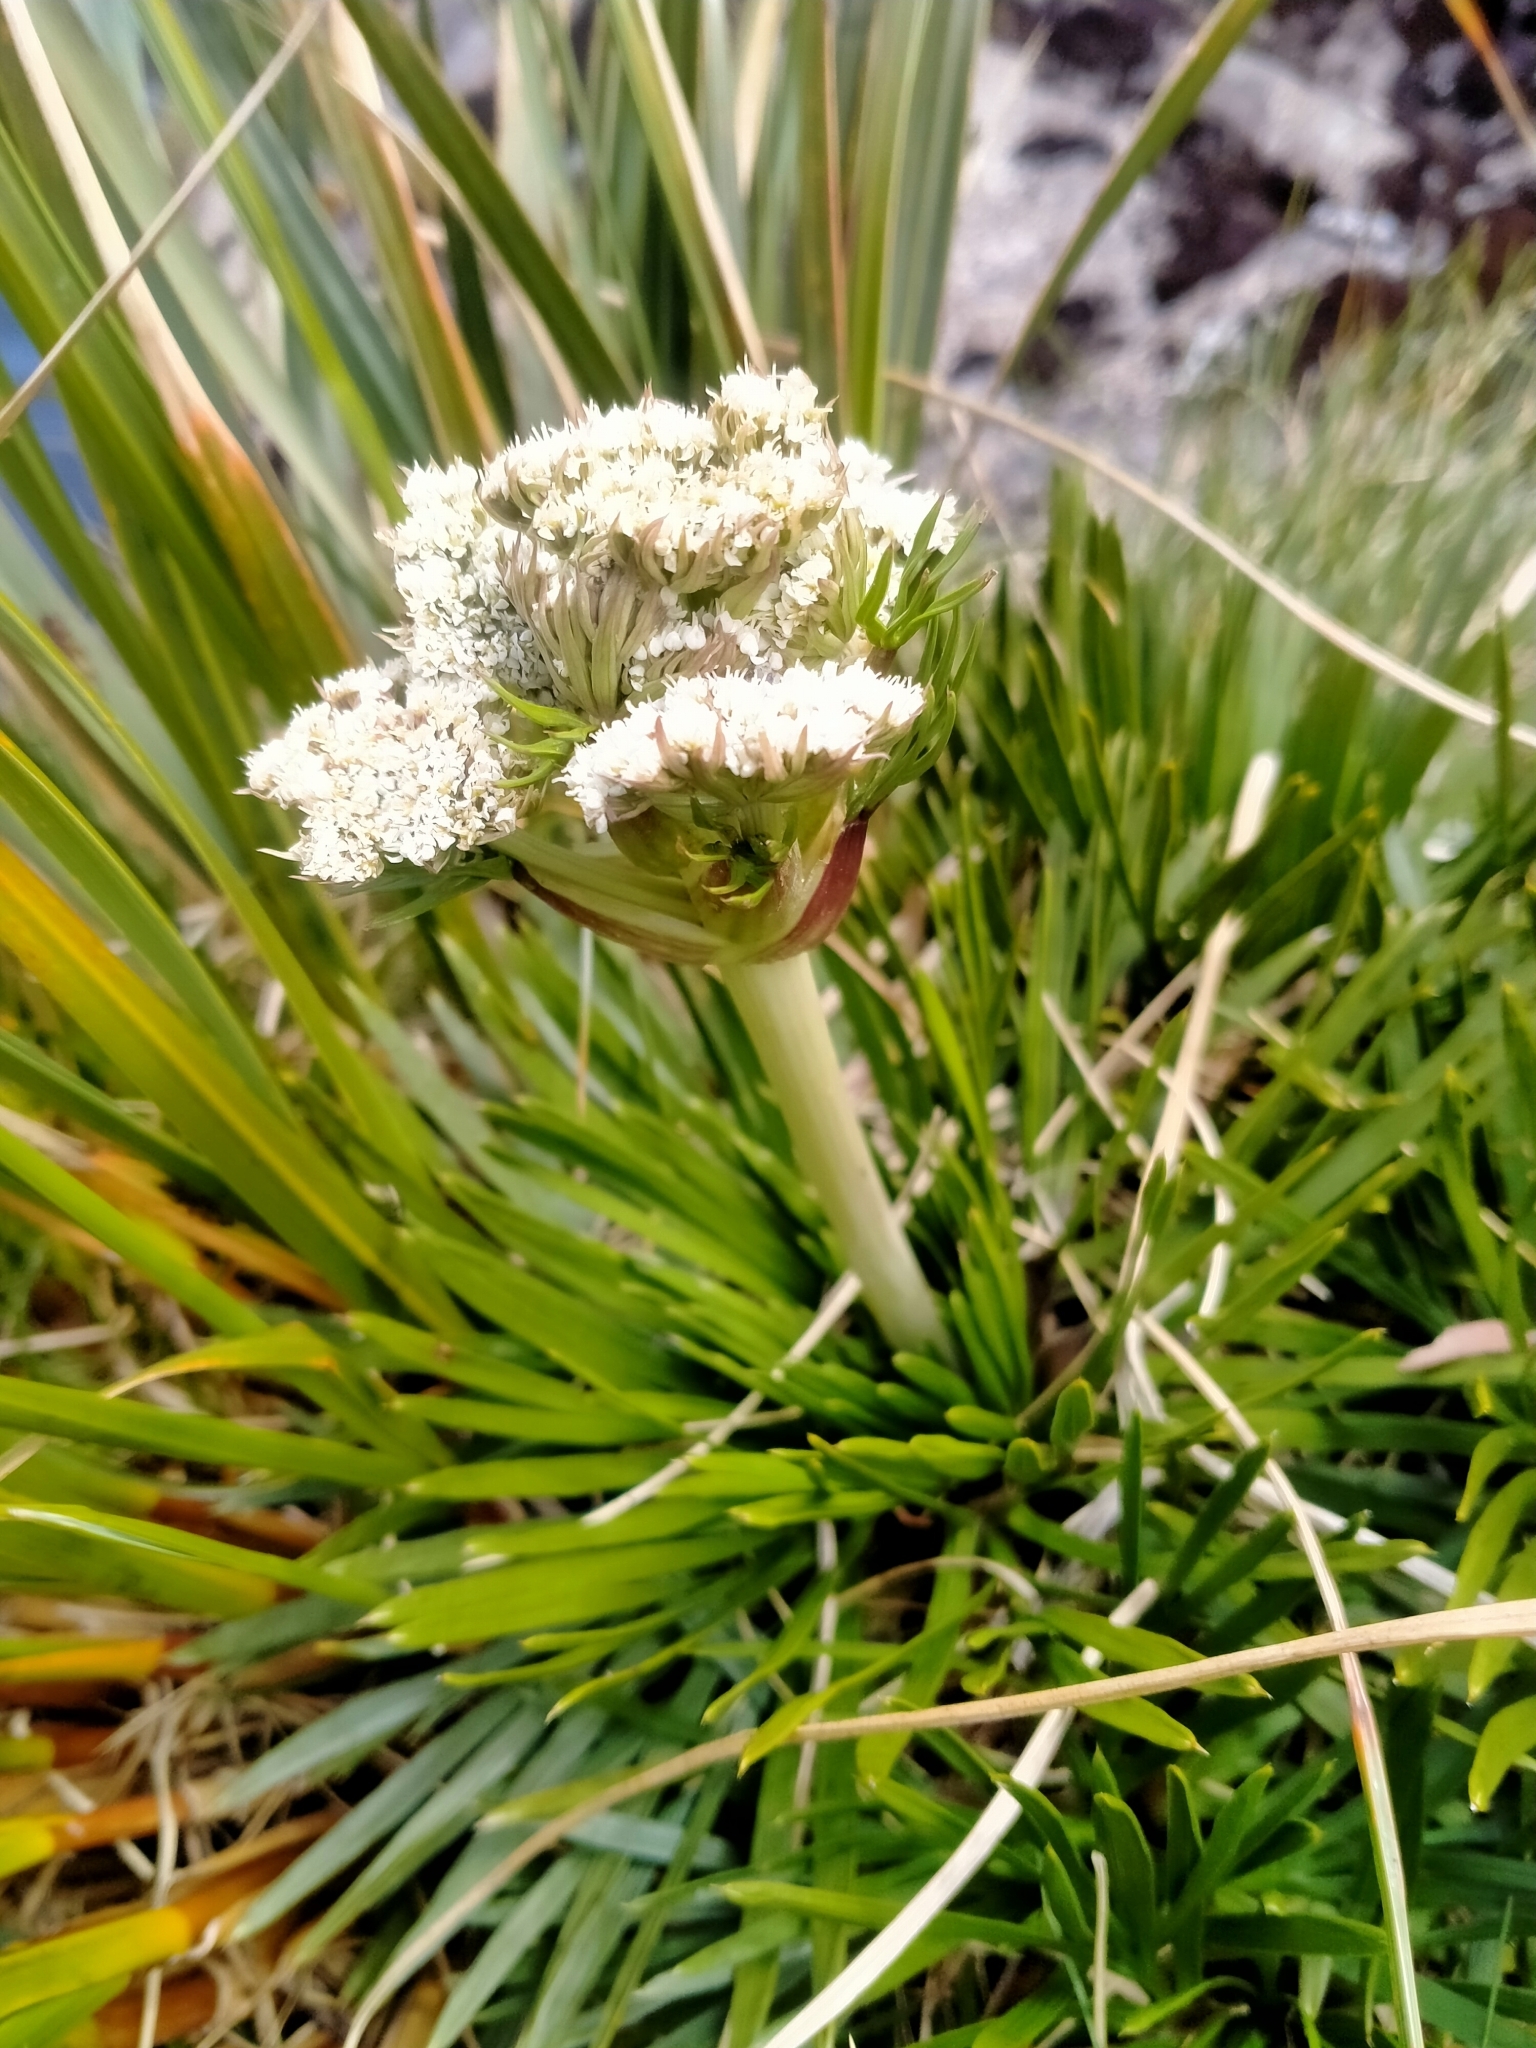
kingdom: Plantae
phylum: Tracheophyta
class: Magnoliopsida
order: Apiales
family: Apiaceae
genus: Aciphylla
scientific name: Aciphylla congesta
